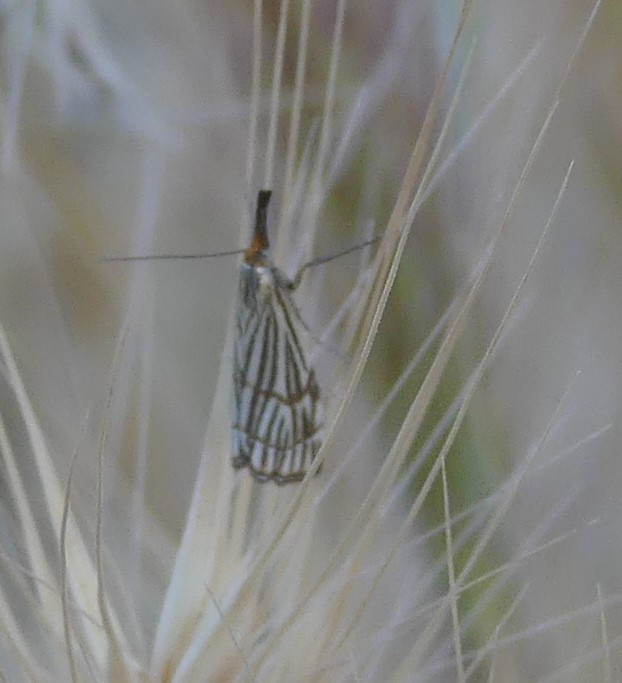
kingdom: Animalia
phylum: Arthropoda
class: Insecta
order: Lepidoptera
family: Crambidae
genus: Chrysocrambus
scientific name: Chrysocrambus Chrysocramboides craterellus
